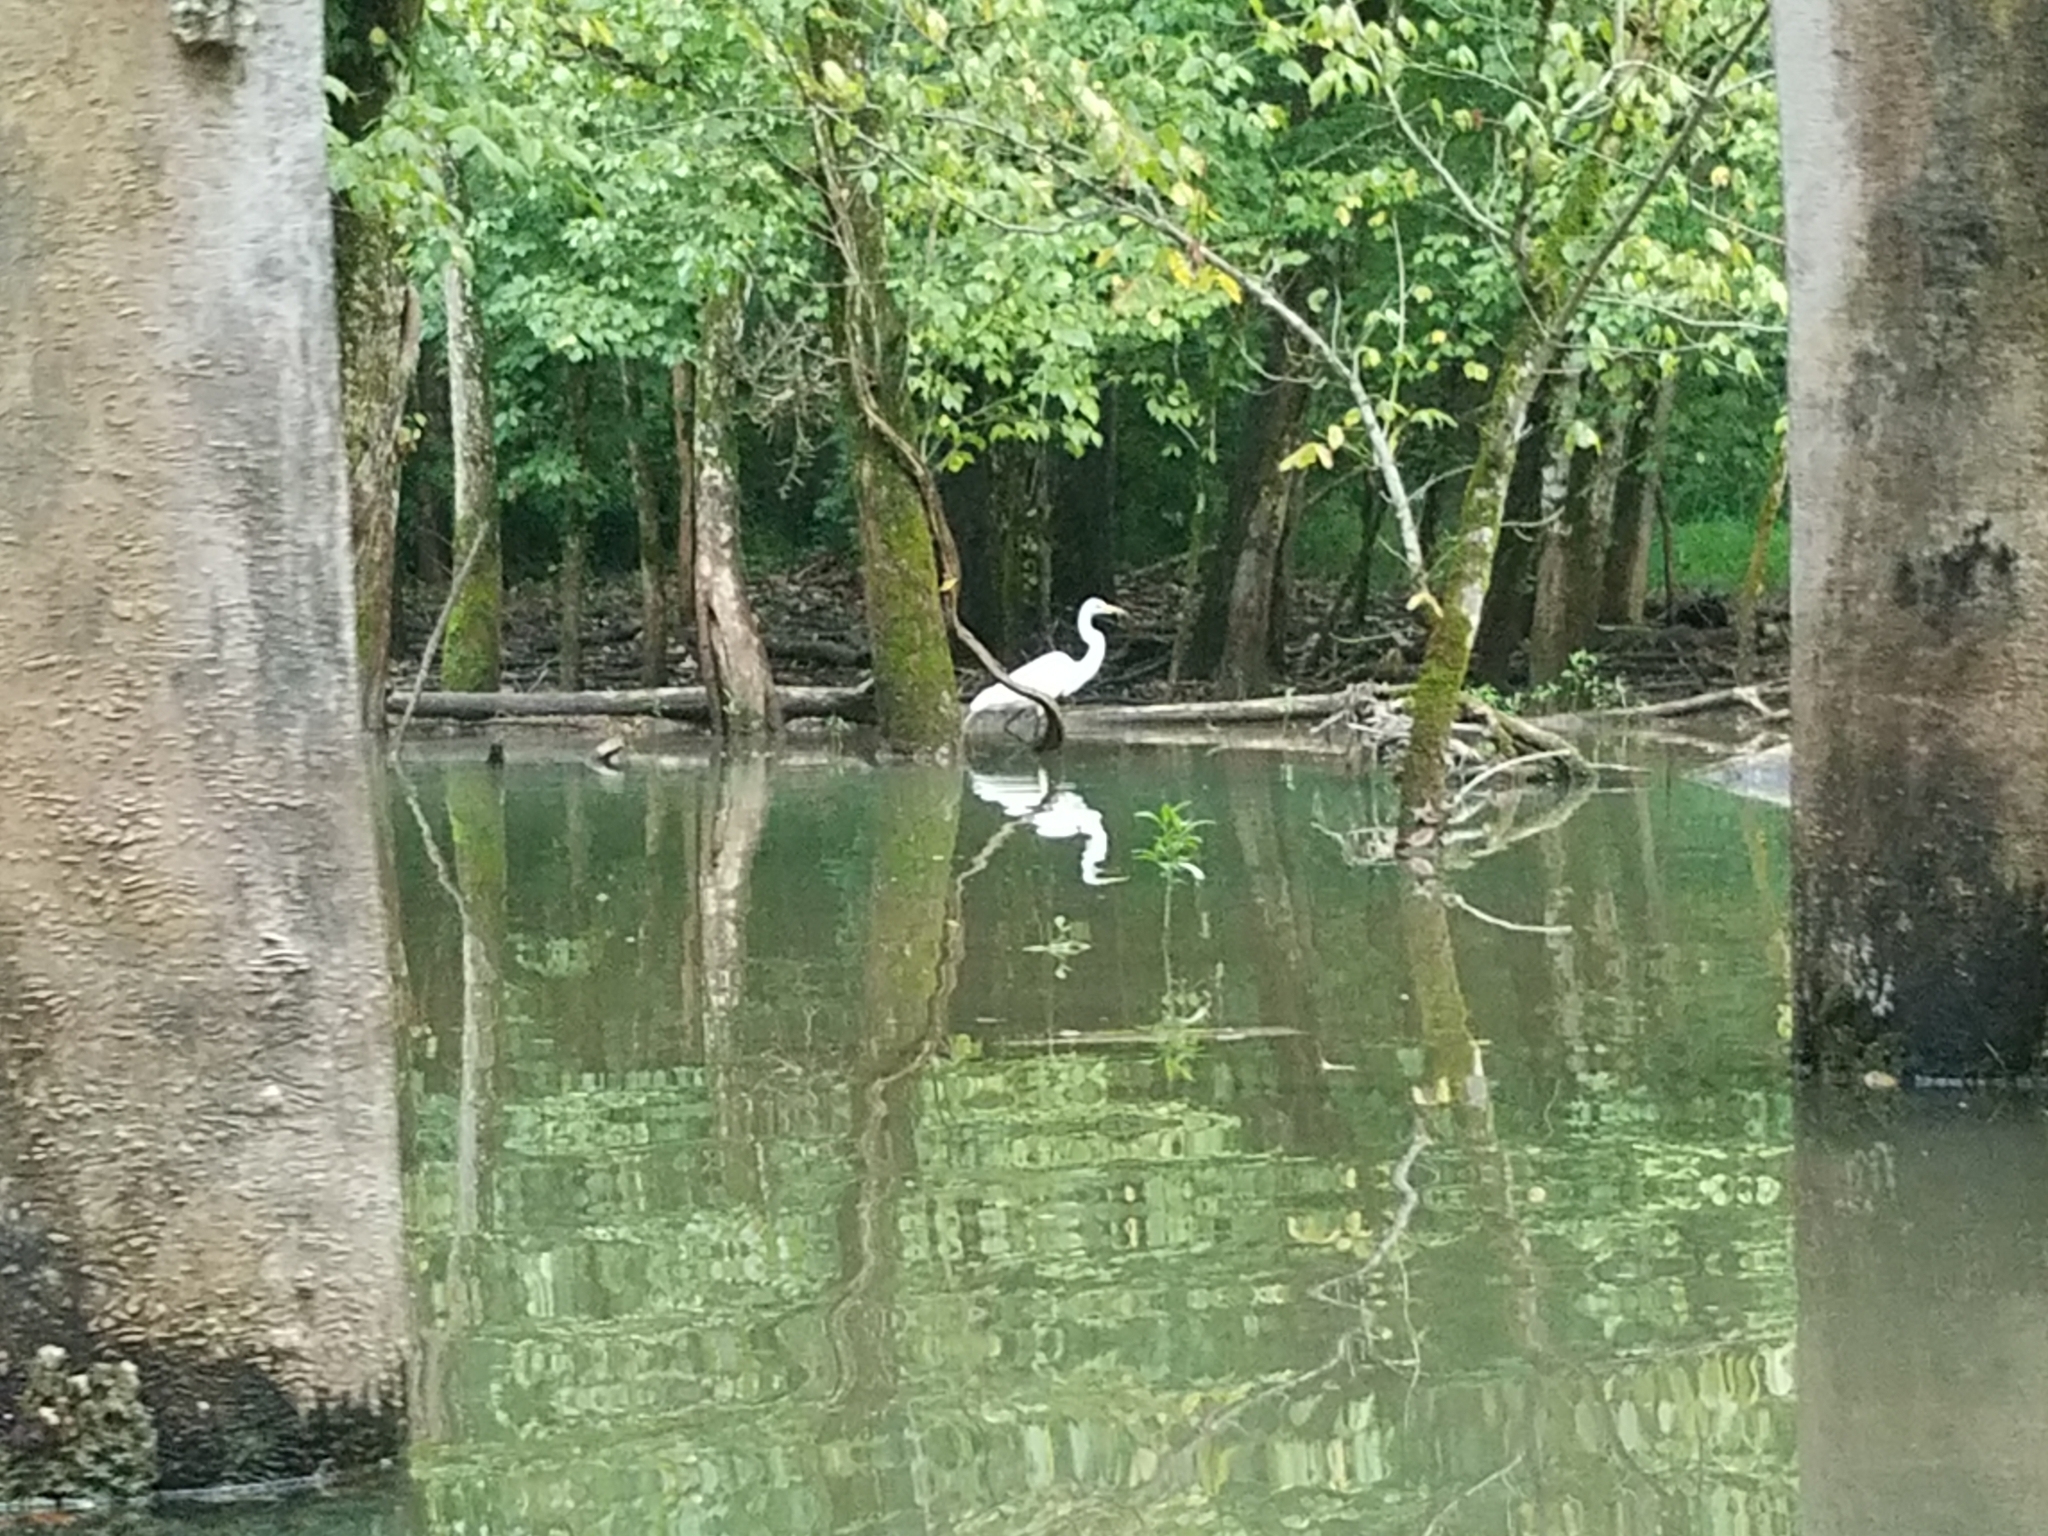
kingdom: Animalia
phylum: Chordata
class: Aves
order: Pelecaniformes
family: Ardeidae
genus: Ardea
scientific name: Ardea alba
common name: Great egret
